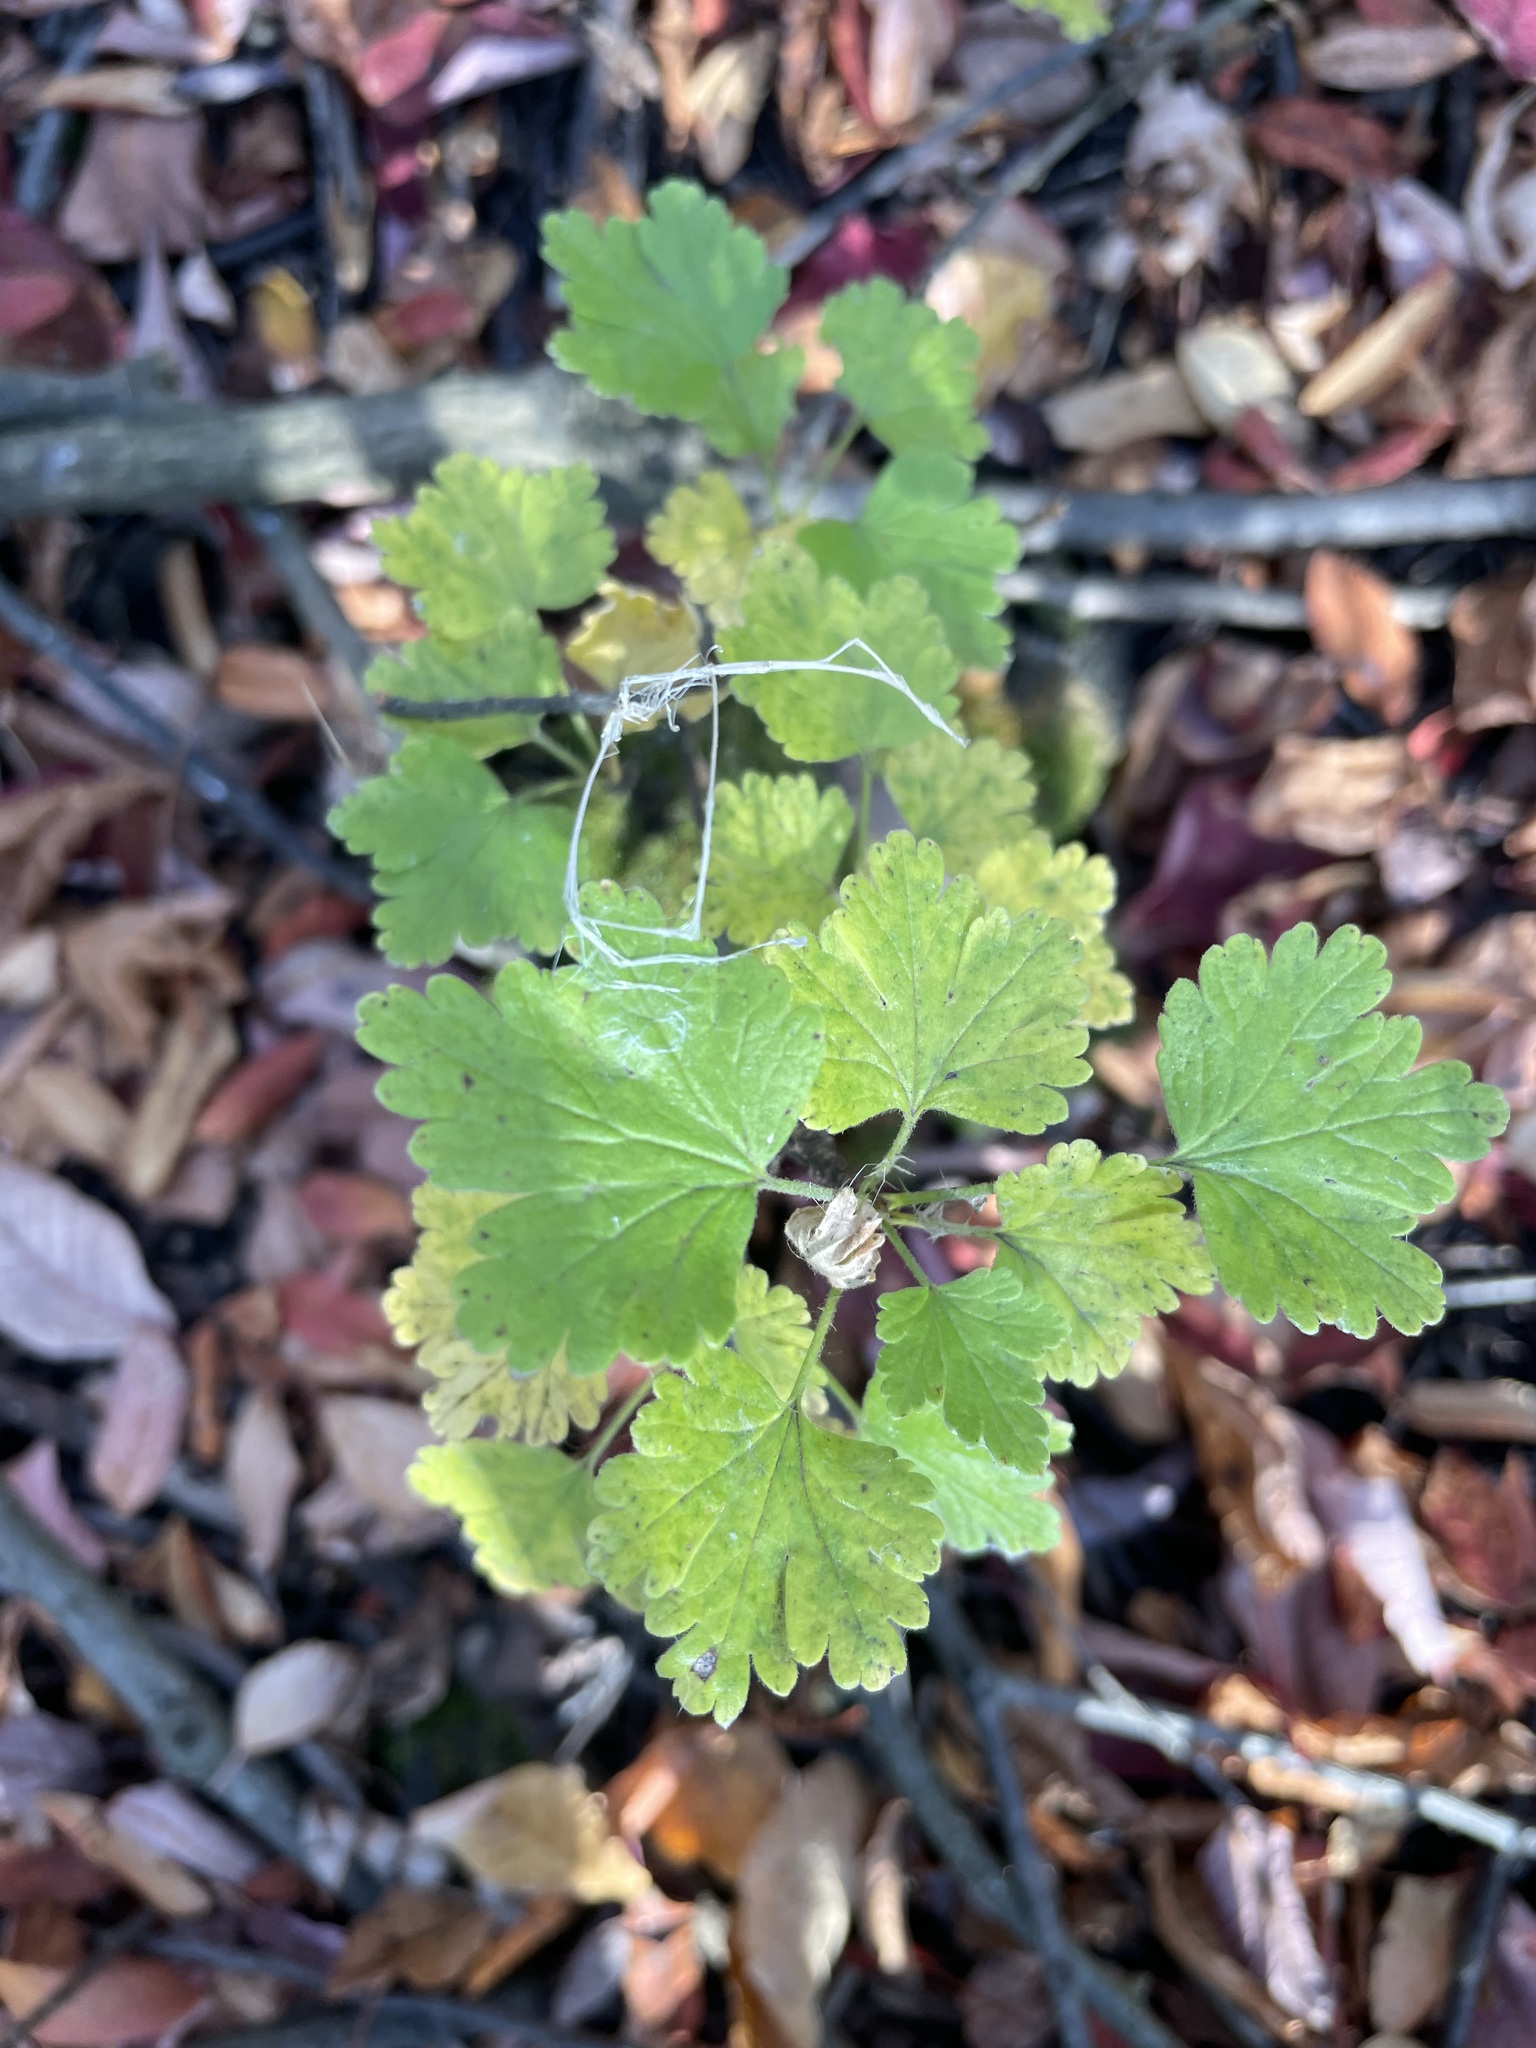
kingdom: Plantae
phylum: Tracheophyta
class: Magnoliopsida
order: Saxifragales
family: Grossulariaceae
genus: Ribes
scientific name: Ribes uva-crispa
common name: Gooseberry
